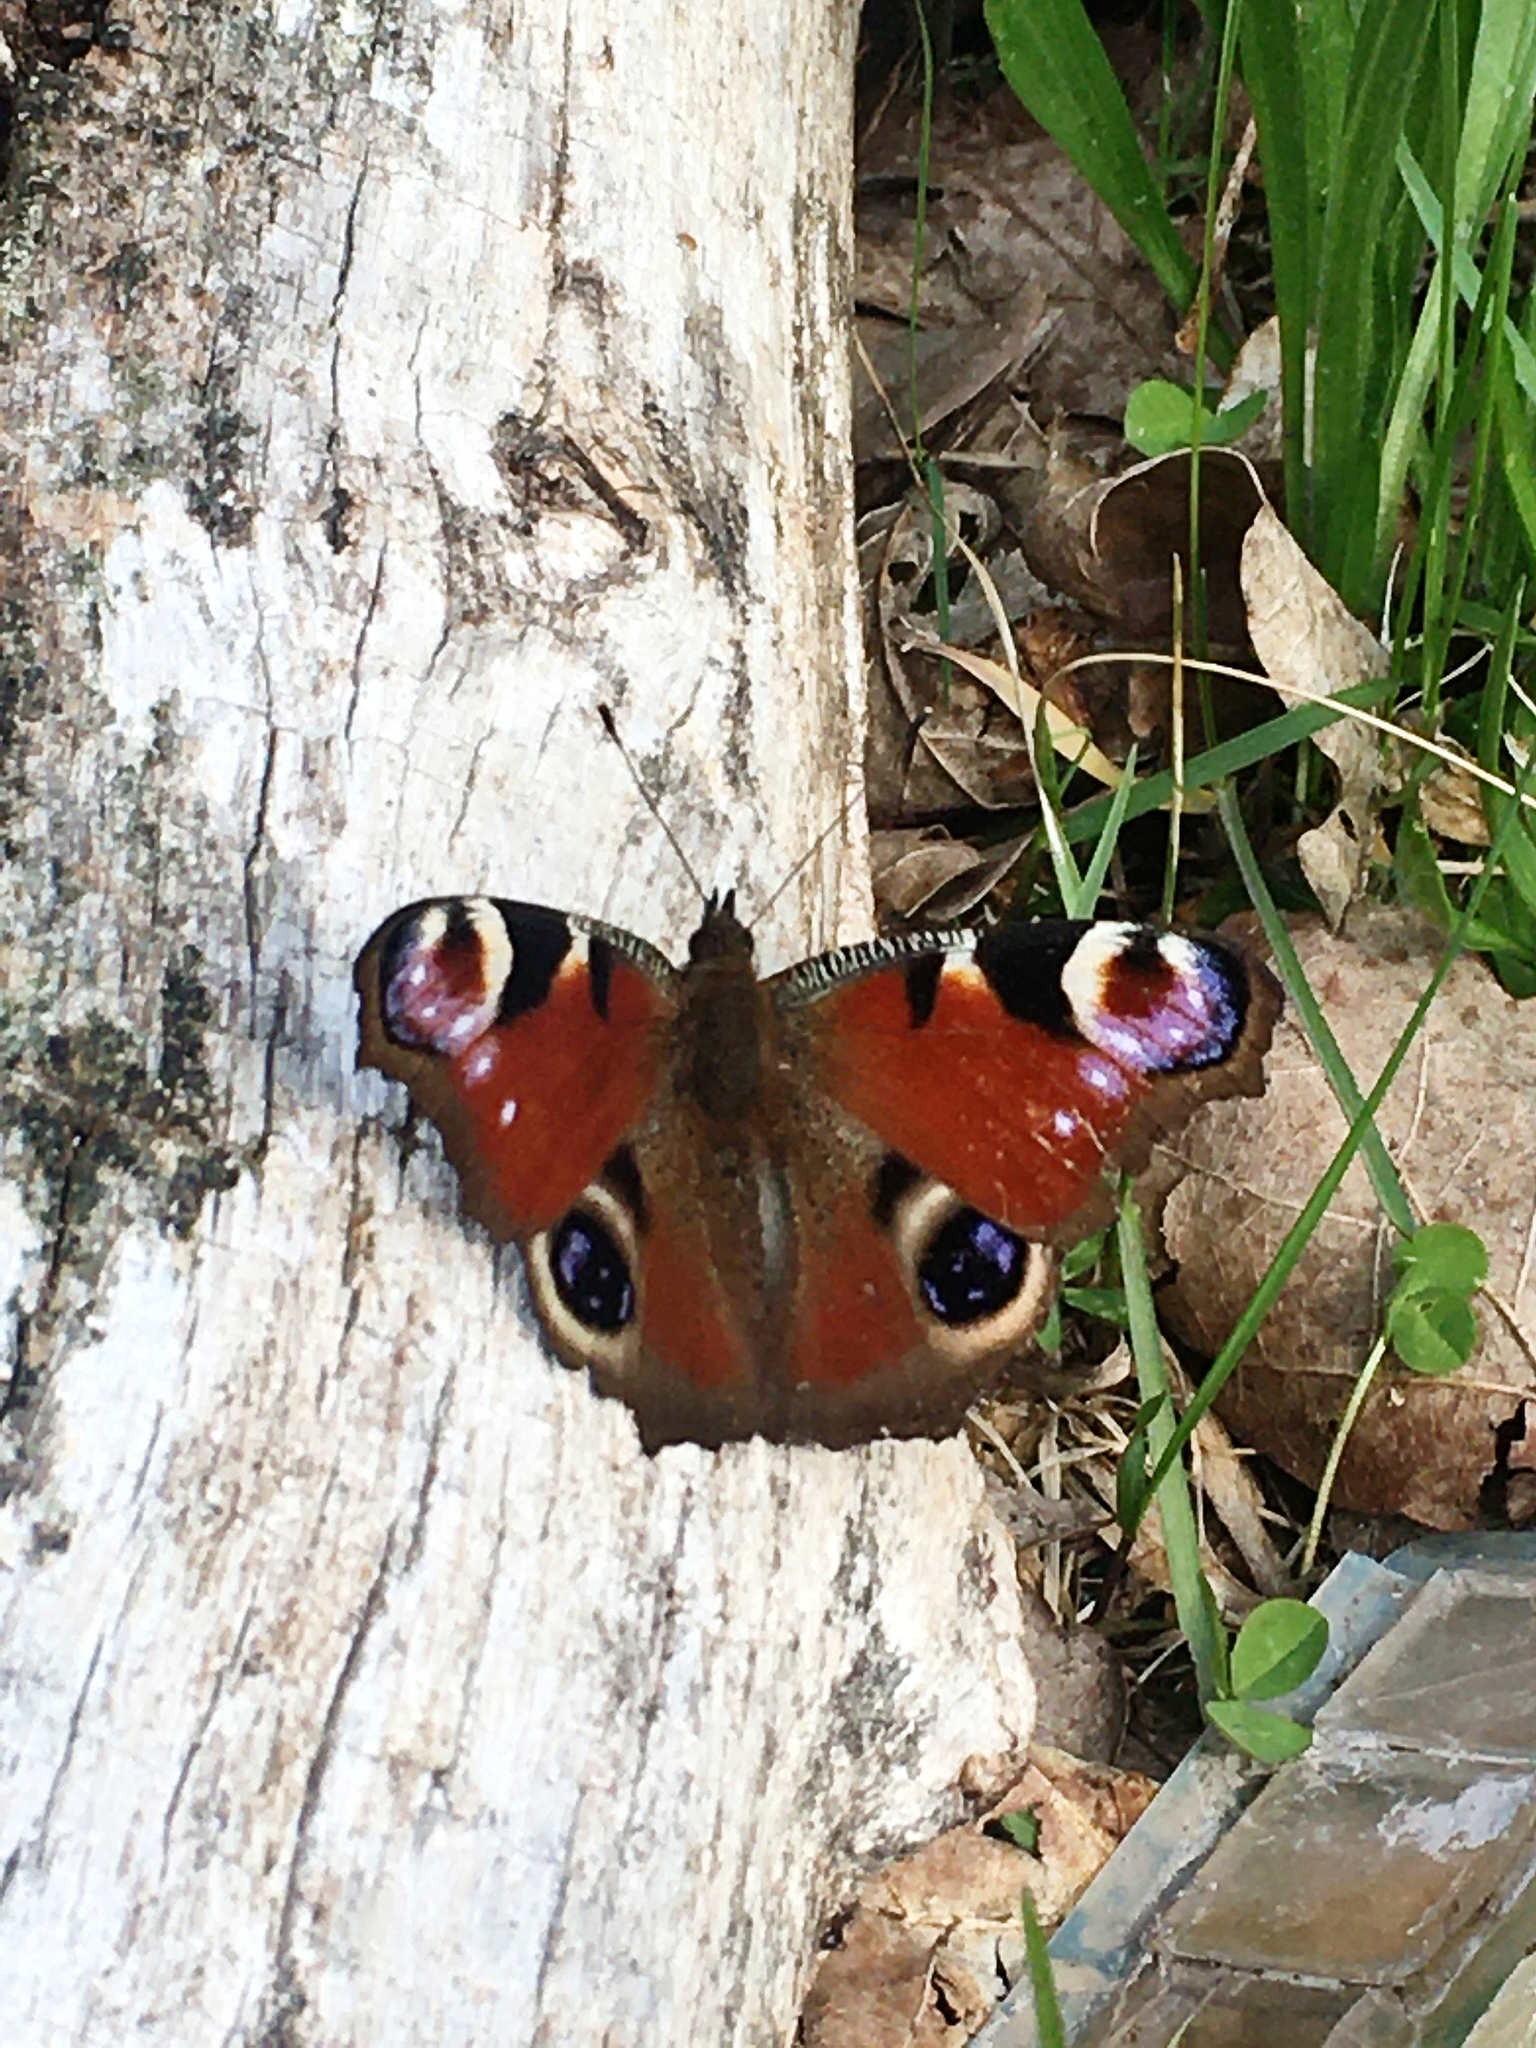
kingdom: Animalia
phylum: Arthropoda
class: Insecta
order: Lepidoptera
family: Nymphalidae
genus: Aglais
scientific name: Aglais io
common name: Peacock
